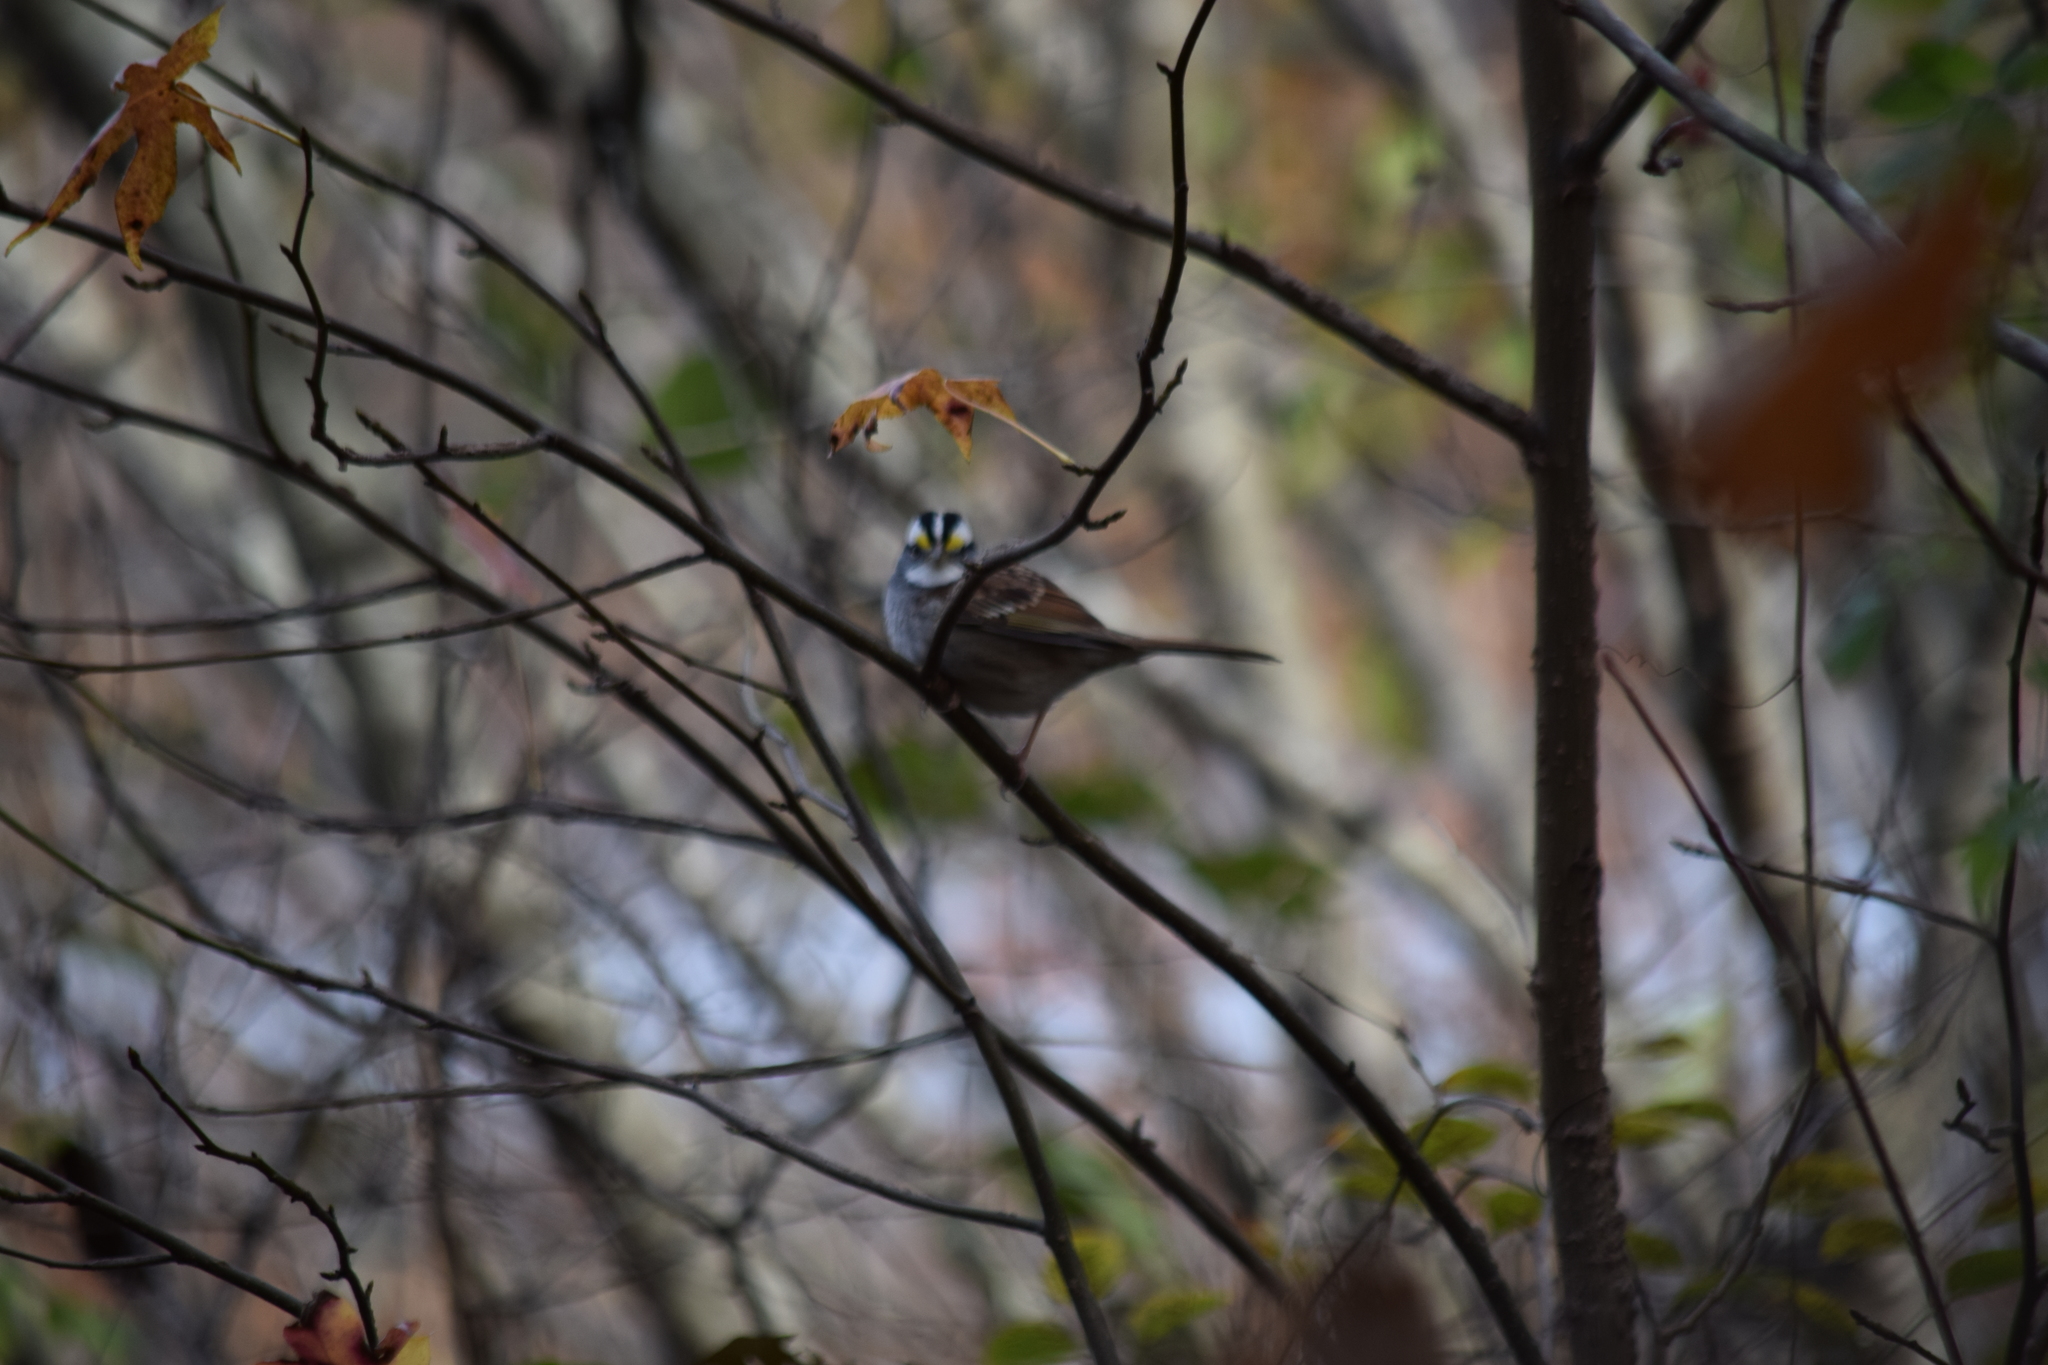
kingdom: Animalia
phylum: Chordata
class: Aves
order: Passeriformes
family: Passerellidae
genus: Zonotrichia
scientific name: Zonotrichia albicollis
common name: White-throated sparrow
